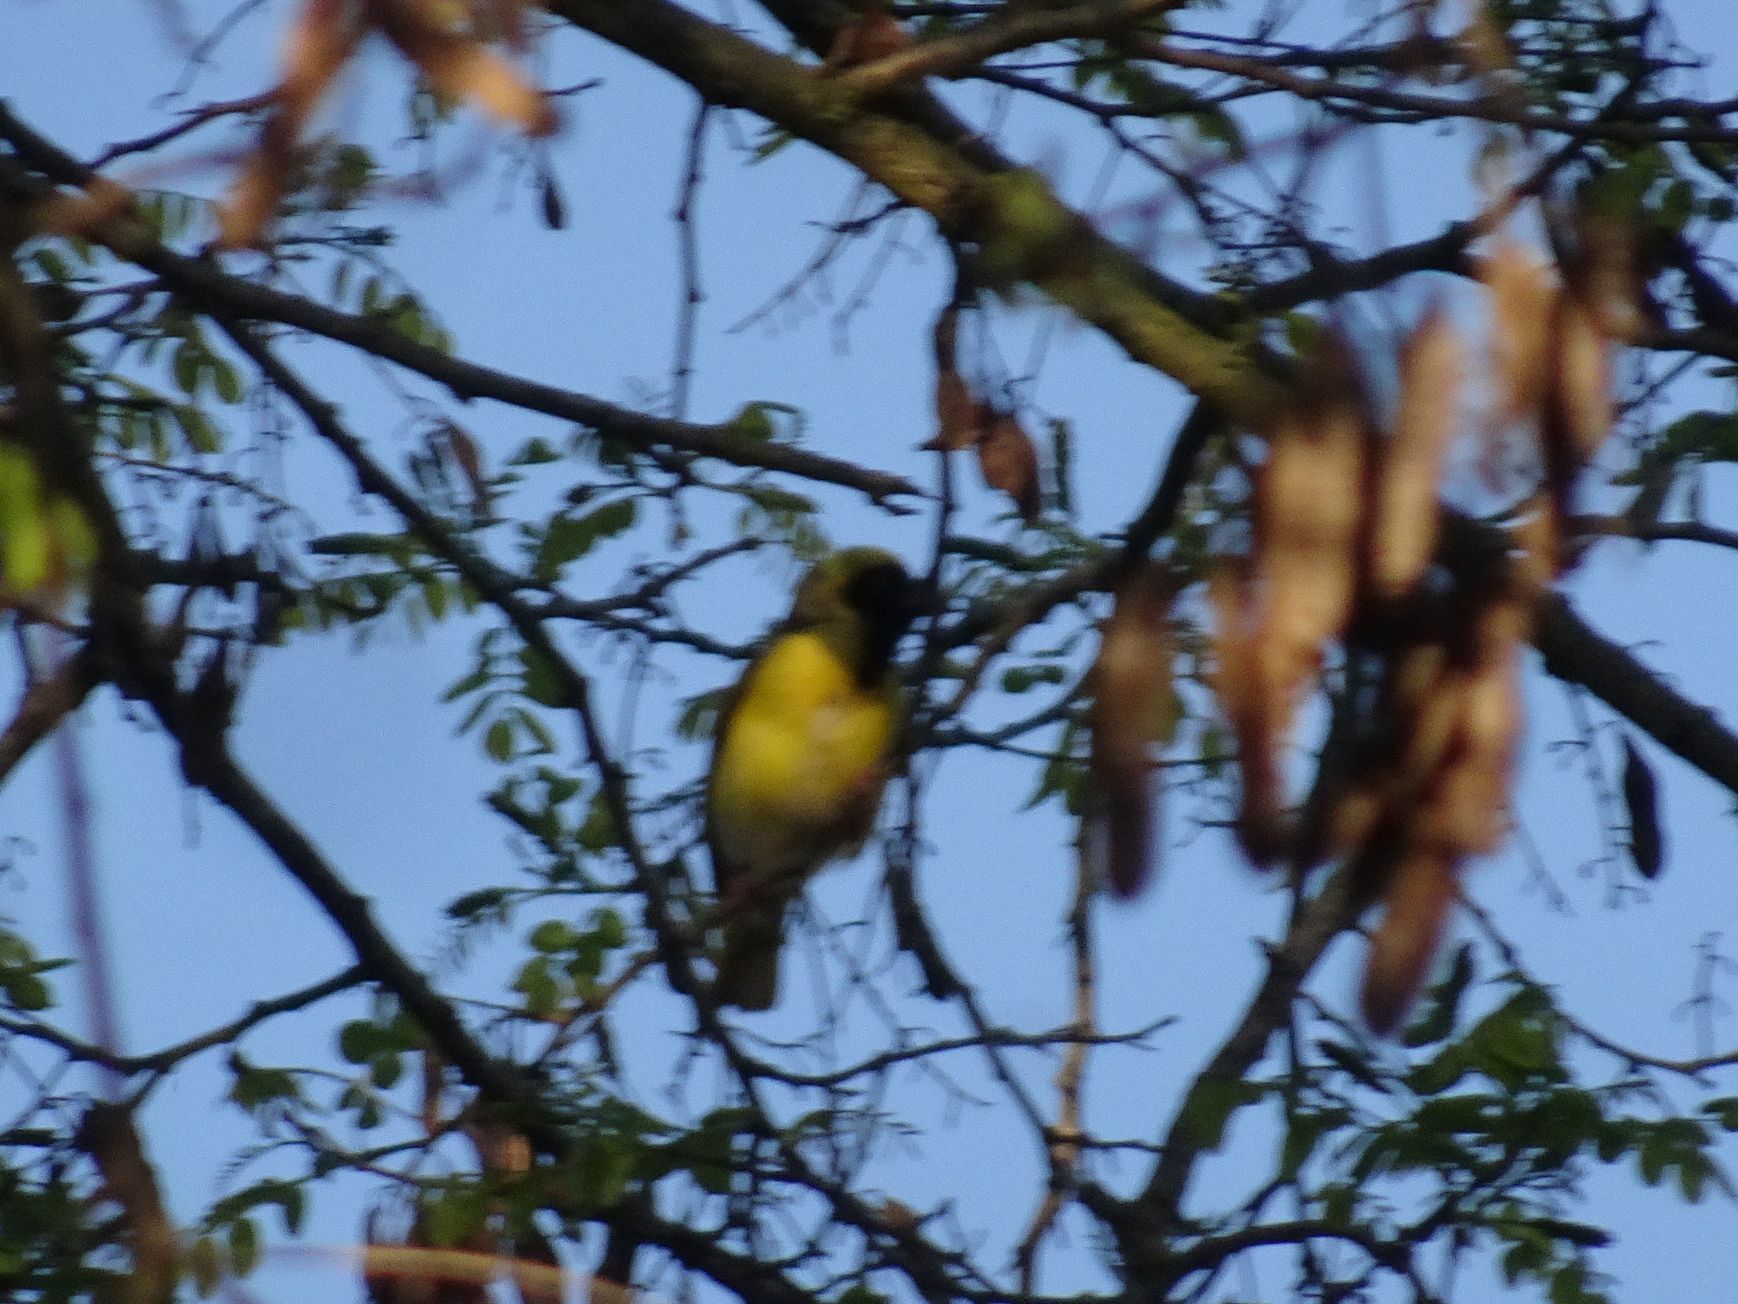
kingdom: Animalia
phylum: Chordata
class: Aves
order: Passeriformes
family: Ploceidae
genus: Ploceus
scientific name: Ploceus velatus
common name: Southern masked weaver
